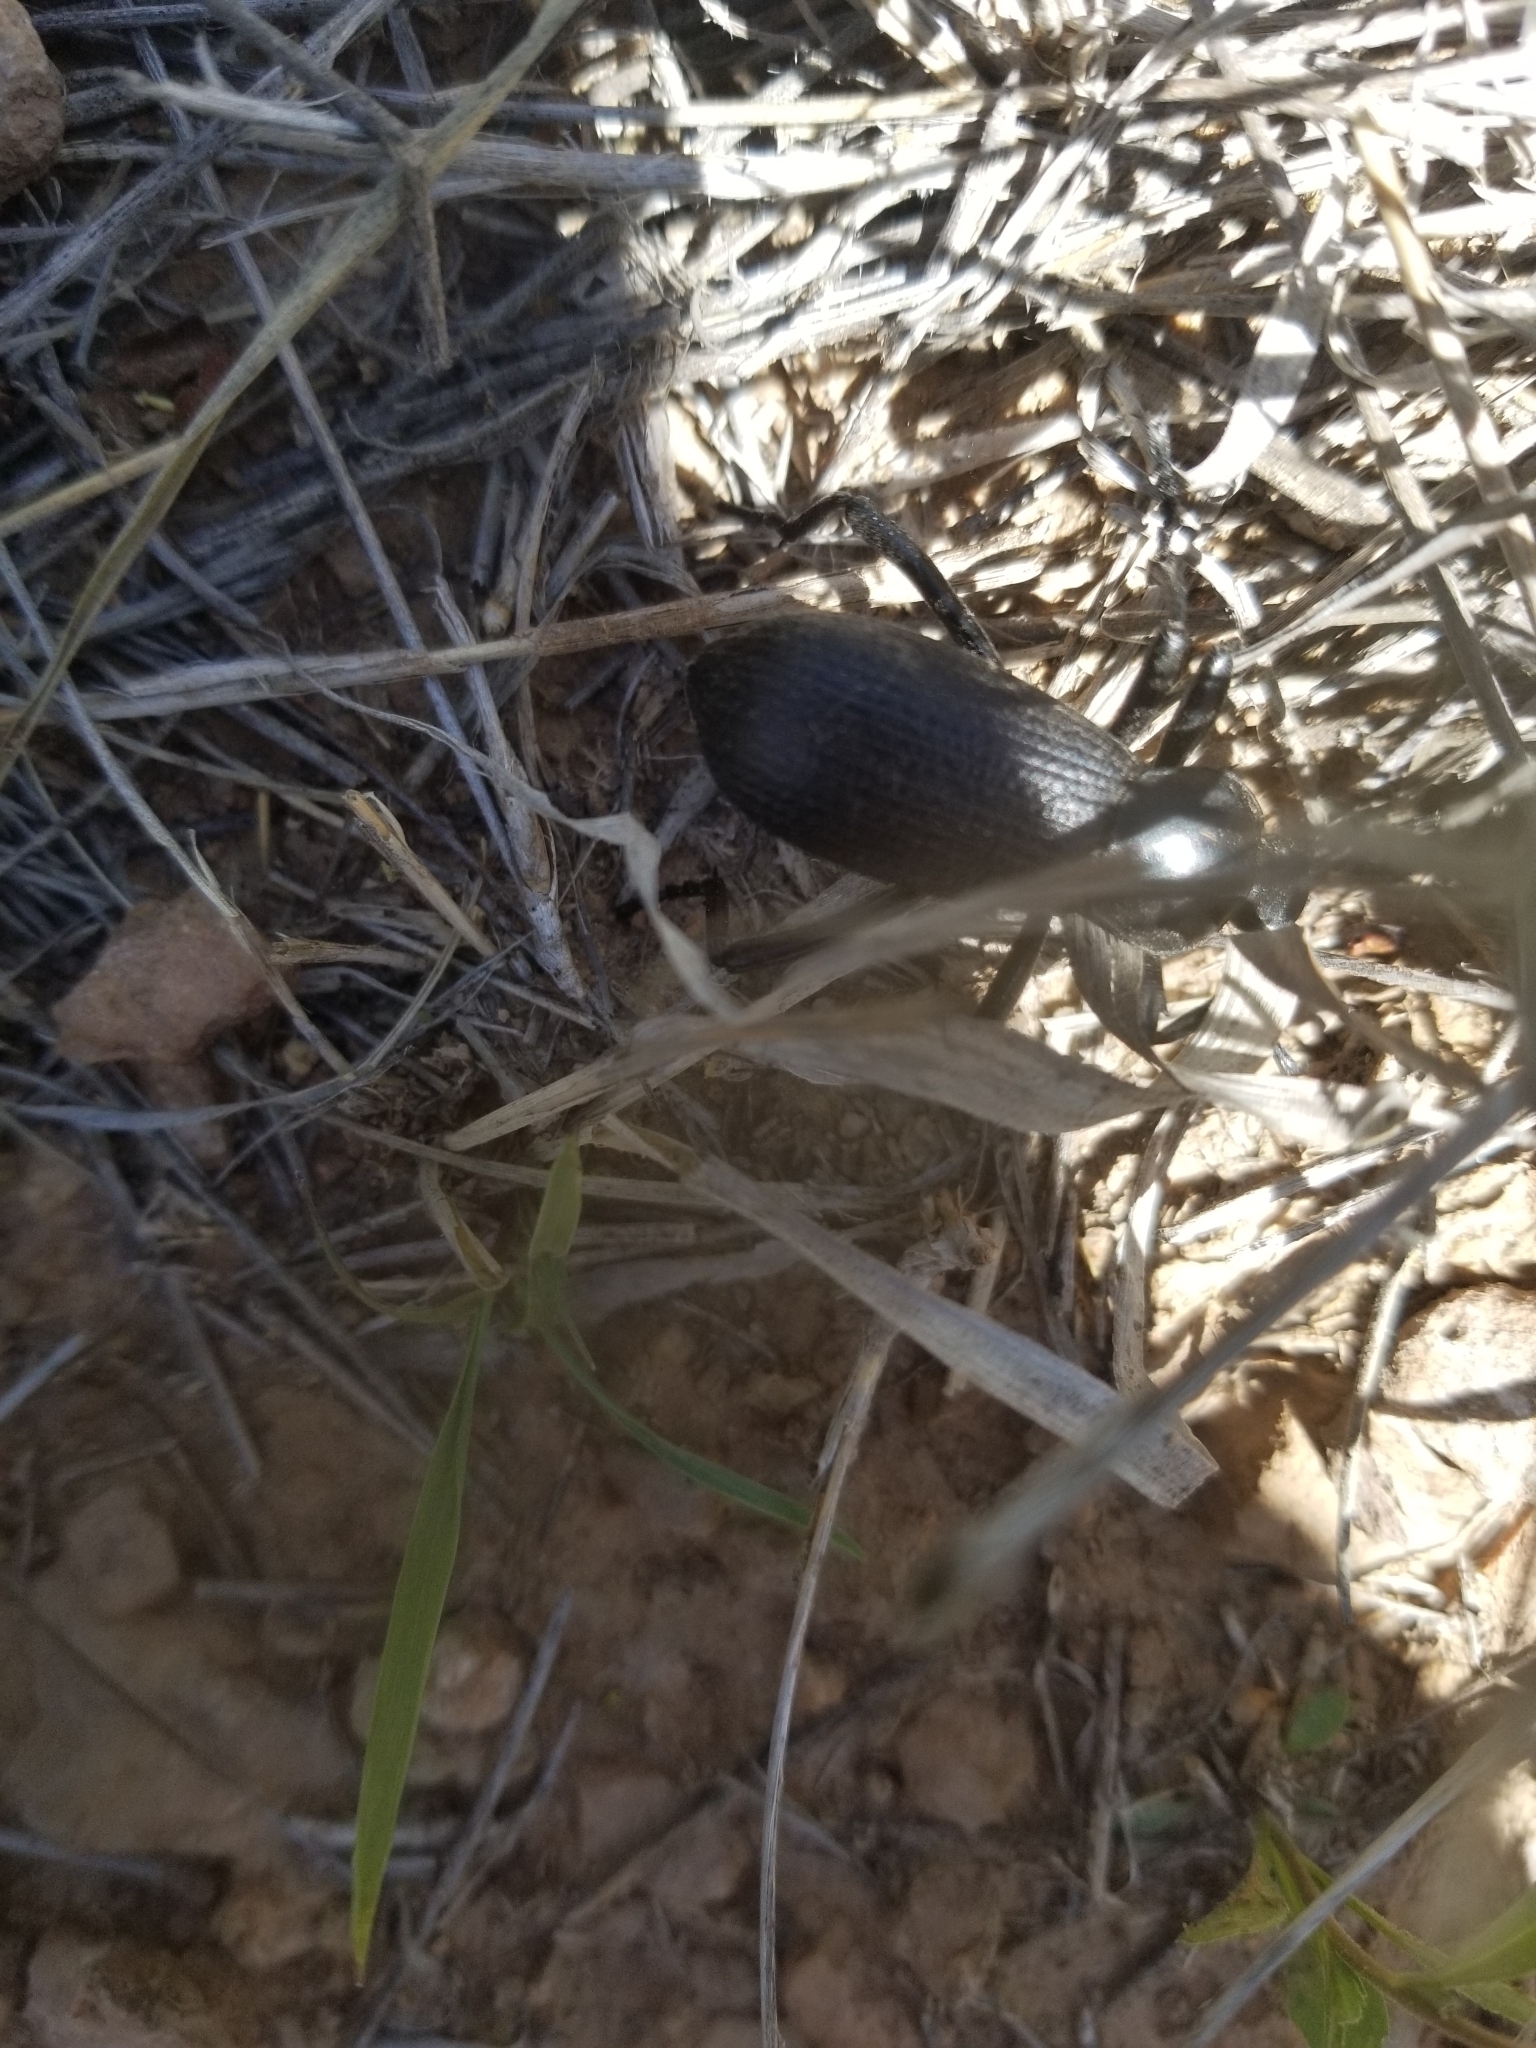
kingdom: Animalia
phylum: Arthropoda
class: Insecta
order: Coleoptera
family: Tenebrionidae
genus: Eleodes
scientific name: Eleodes obscura
